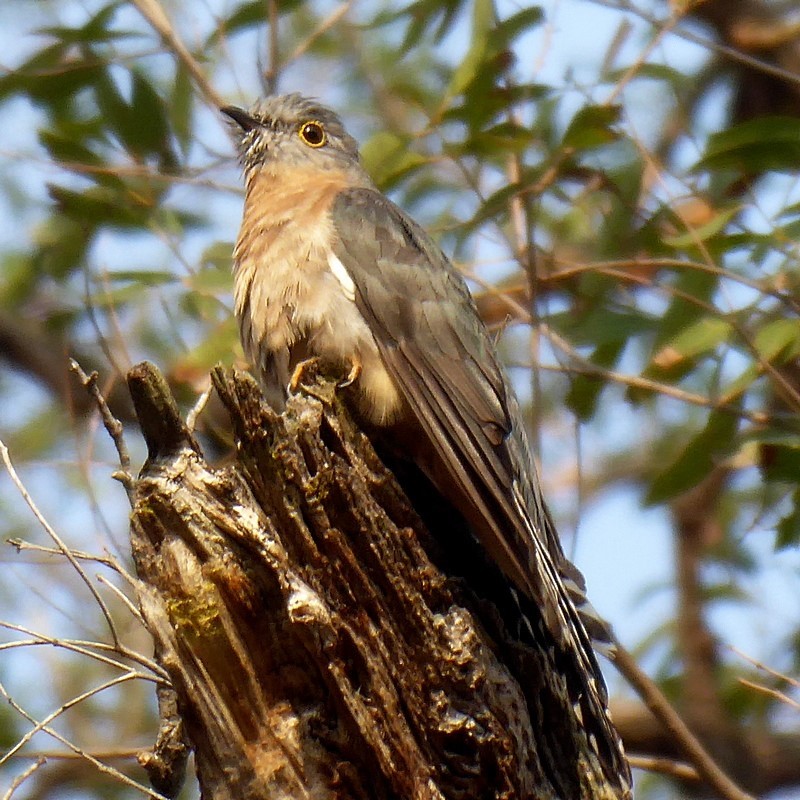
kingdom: Animalia
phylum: Chordata
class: Aves
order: Cuculiformes
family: Cuculidae
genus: Cacomantis
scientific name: Cacomantis flabelliformis
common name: Fan-tailed cuckoo
